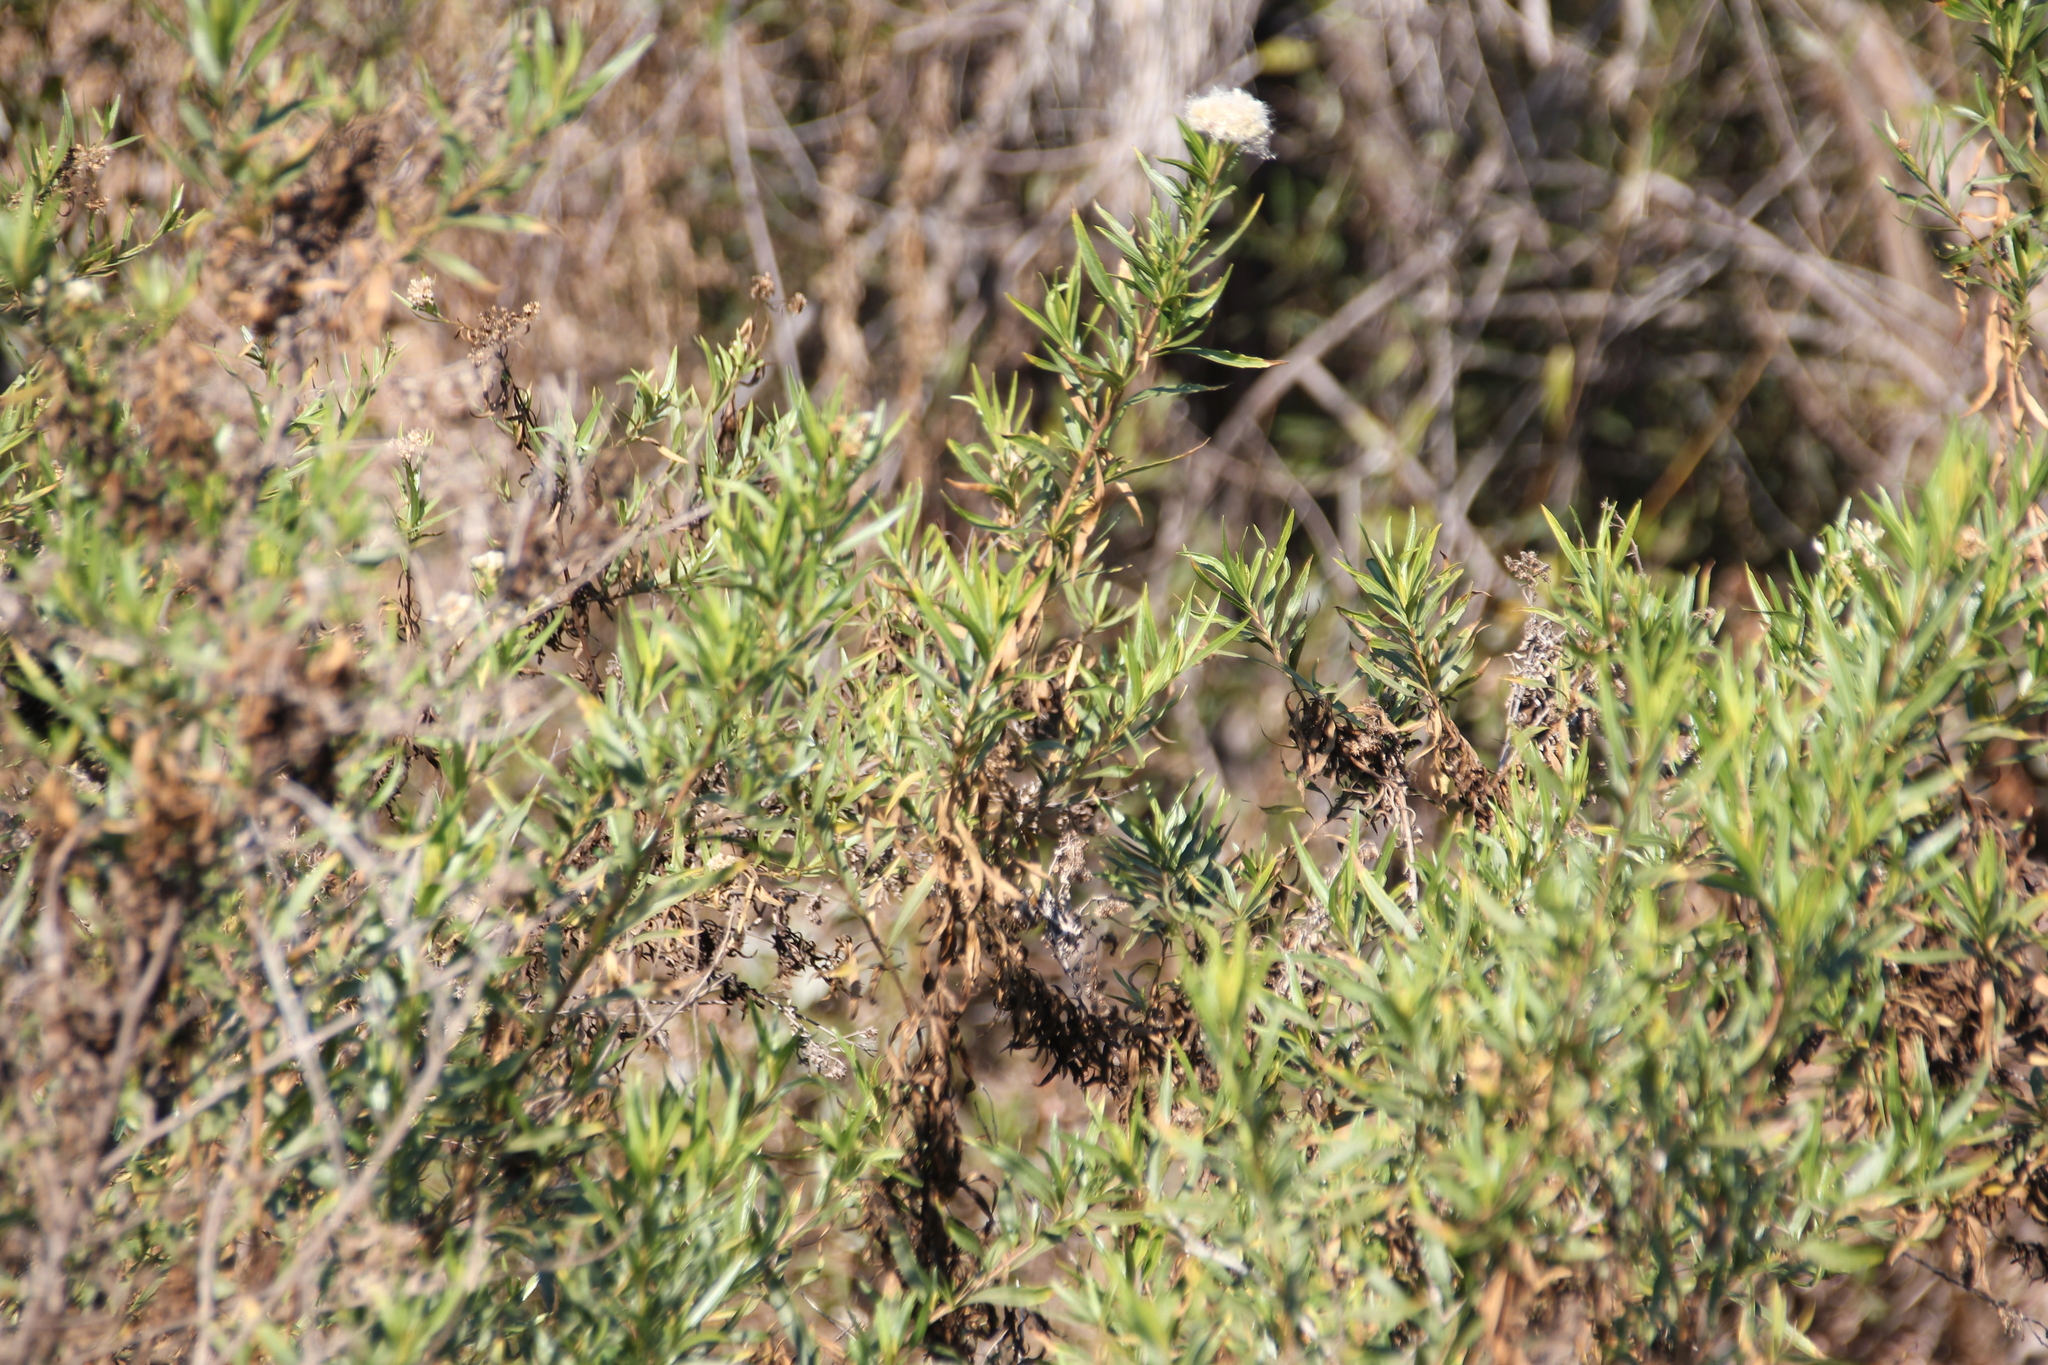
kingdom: Plantae
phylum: Tracheophyta
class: Magnoliopsida
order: Asterales
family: Asteraceae
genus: Baccharis
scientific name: Baccharis salicifolia
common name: Sticky baccharis
